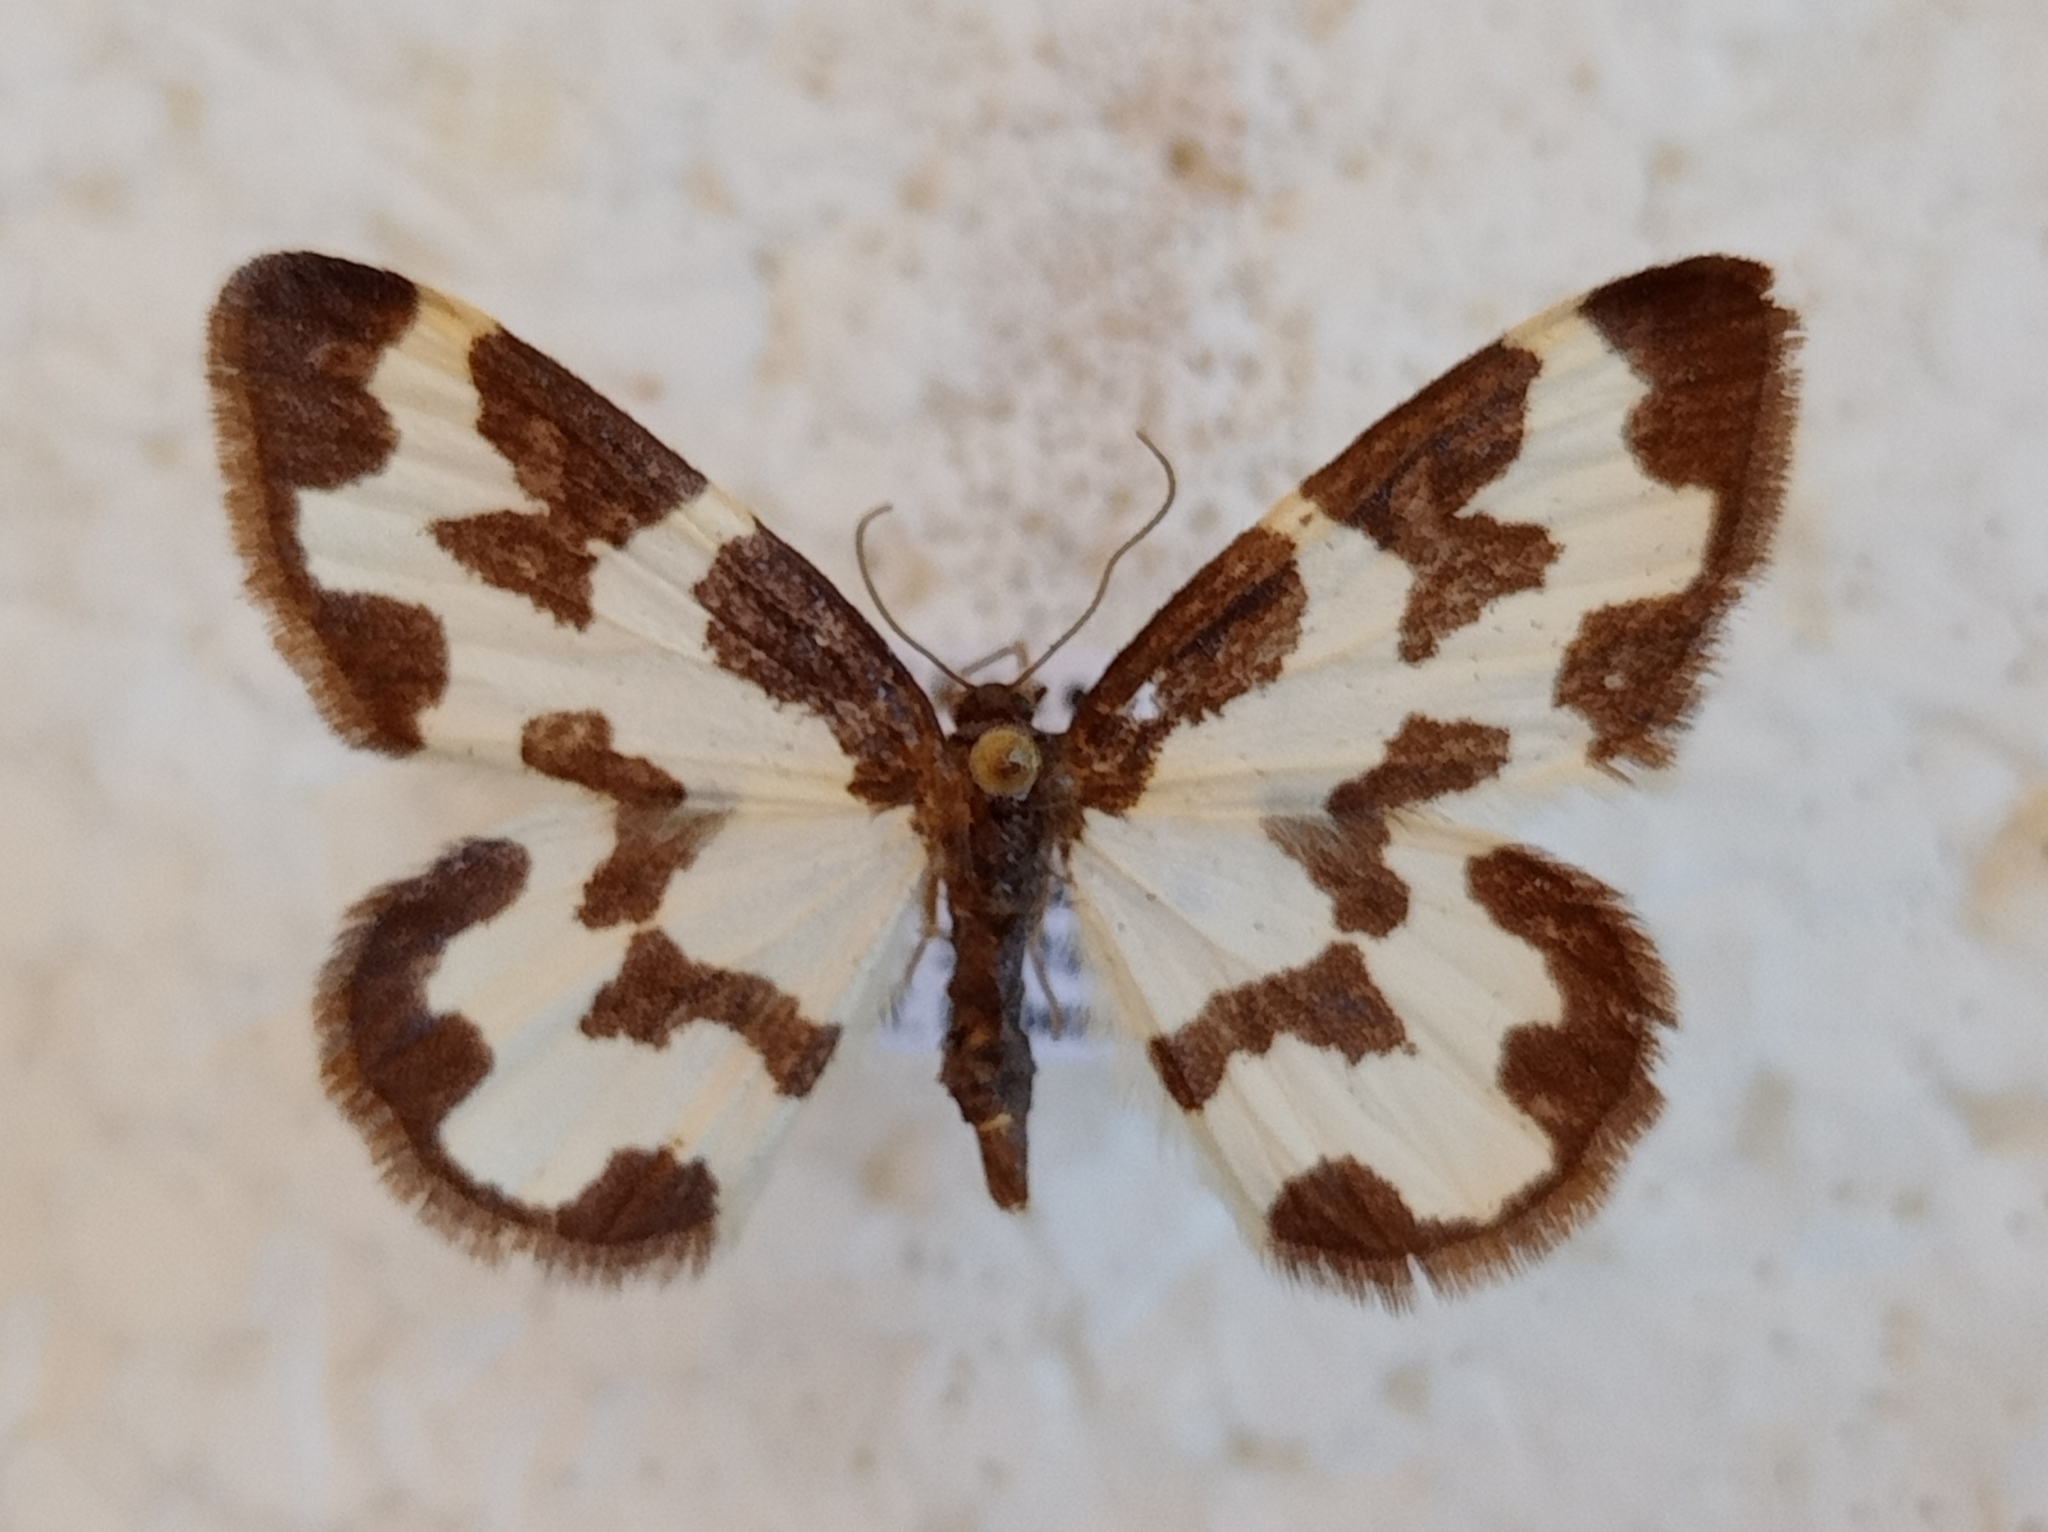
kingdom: Animalia
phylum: Arthropoda
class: Insecta
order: Lepidoptera
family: Geometridae
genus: Lomaspilis
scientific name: Lomaspilis
